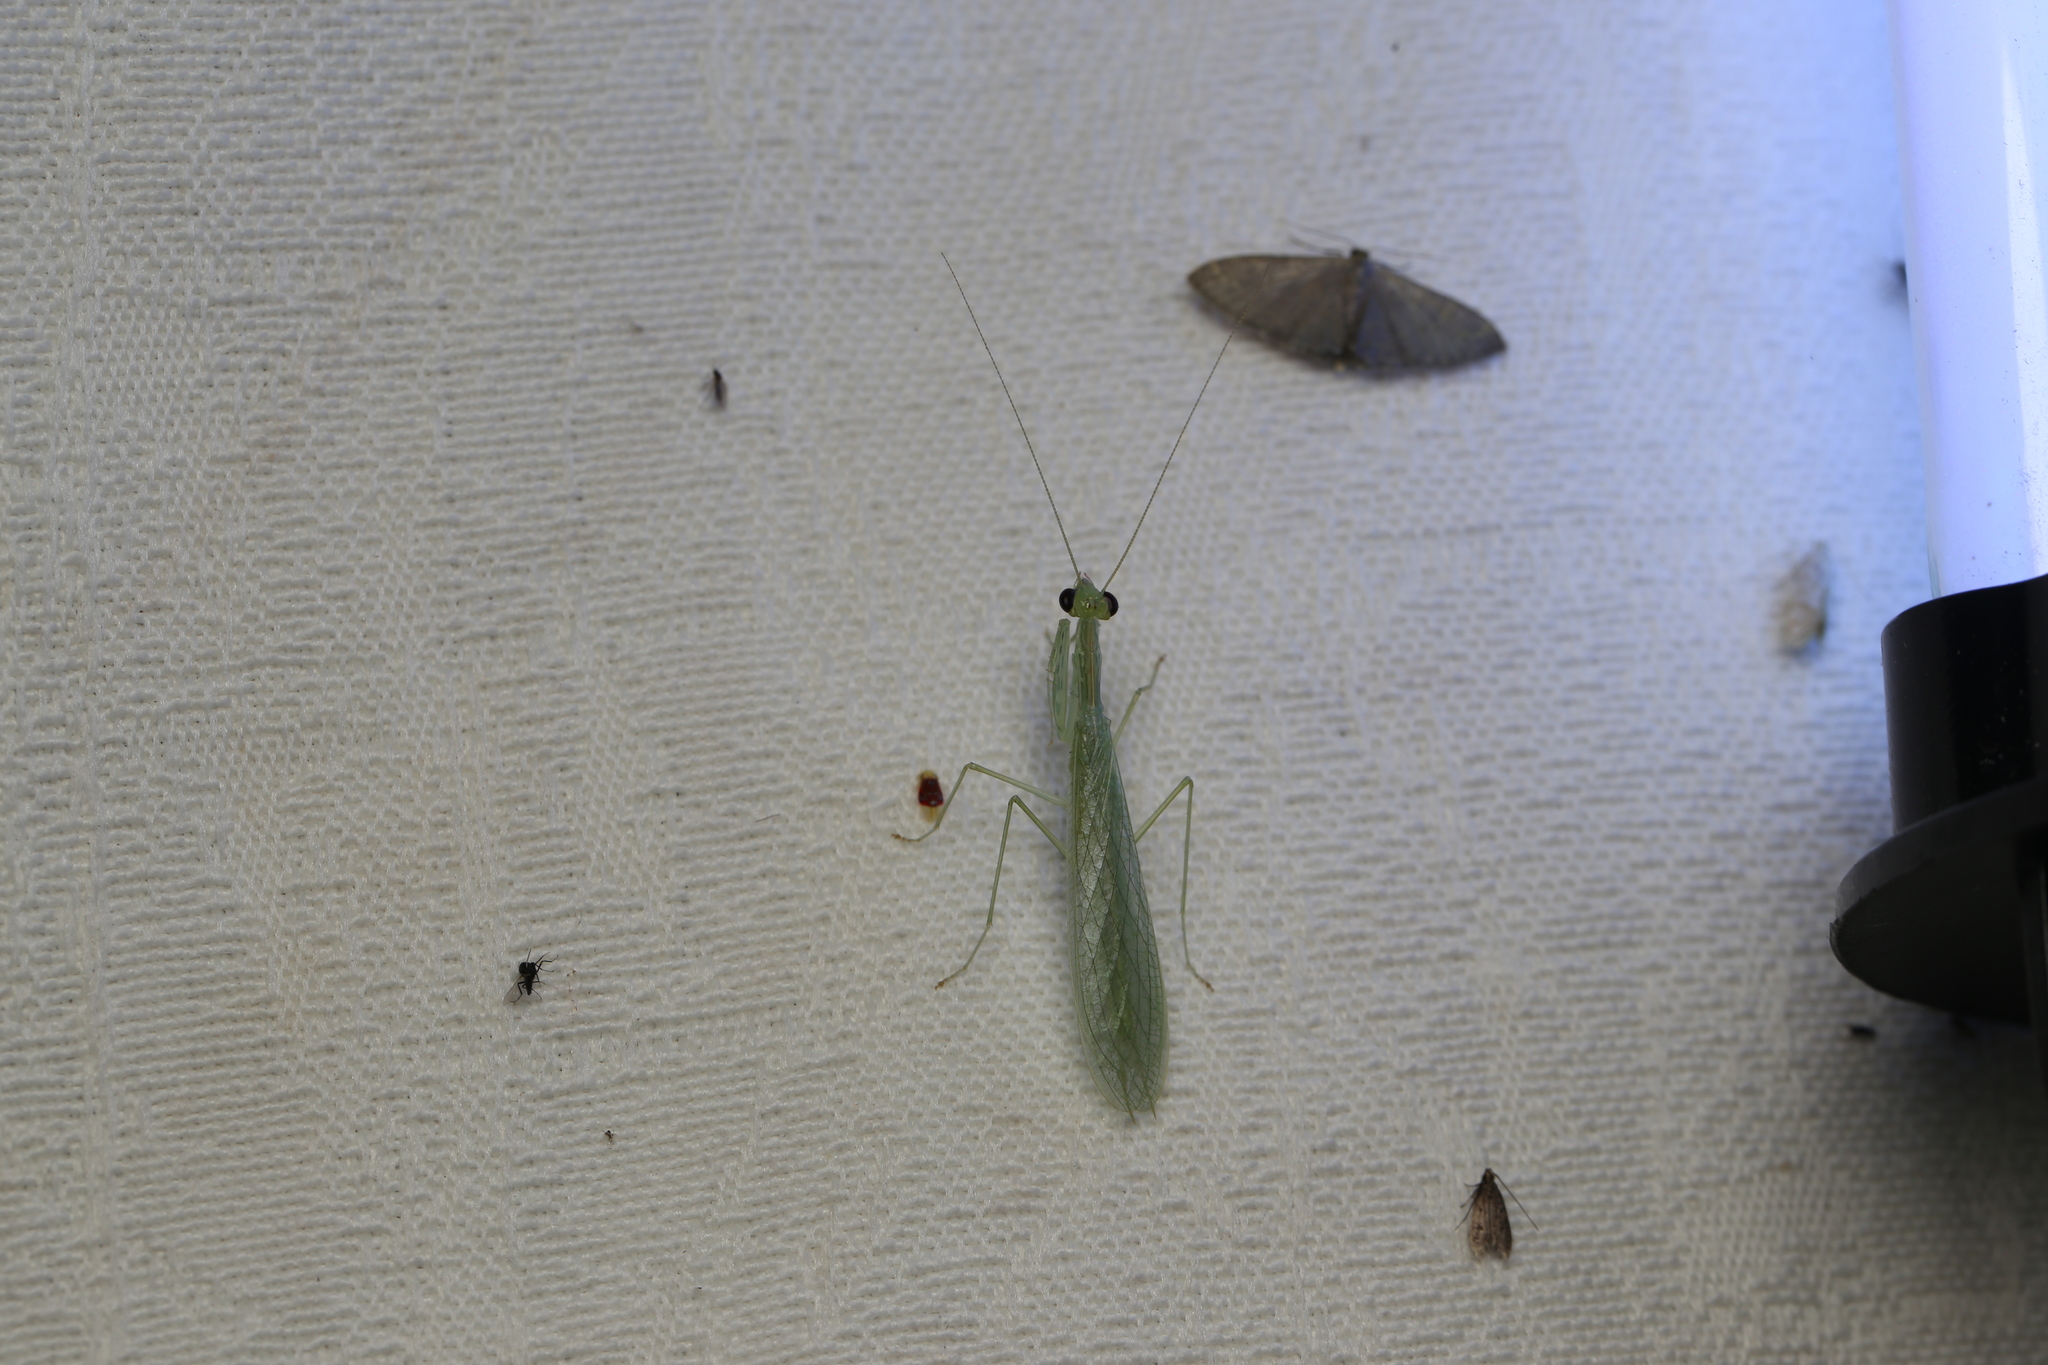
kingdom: Animalia
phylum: Arthropoda
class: Insecta
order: Mantodea
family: Nanomantidae
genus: Kongobatha
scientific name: Kongobatha diademata
